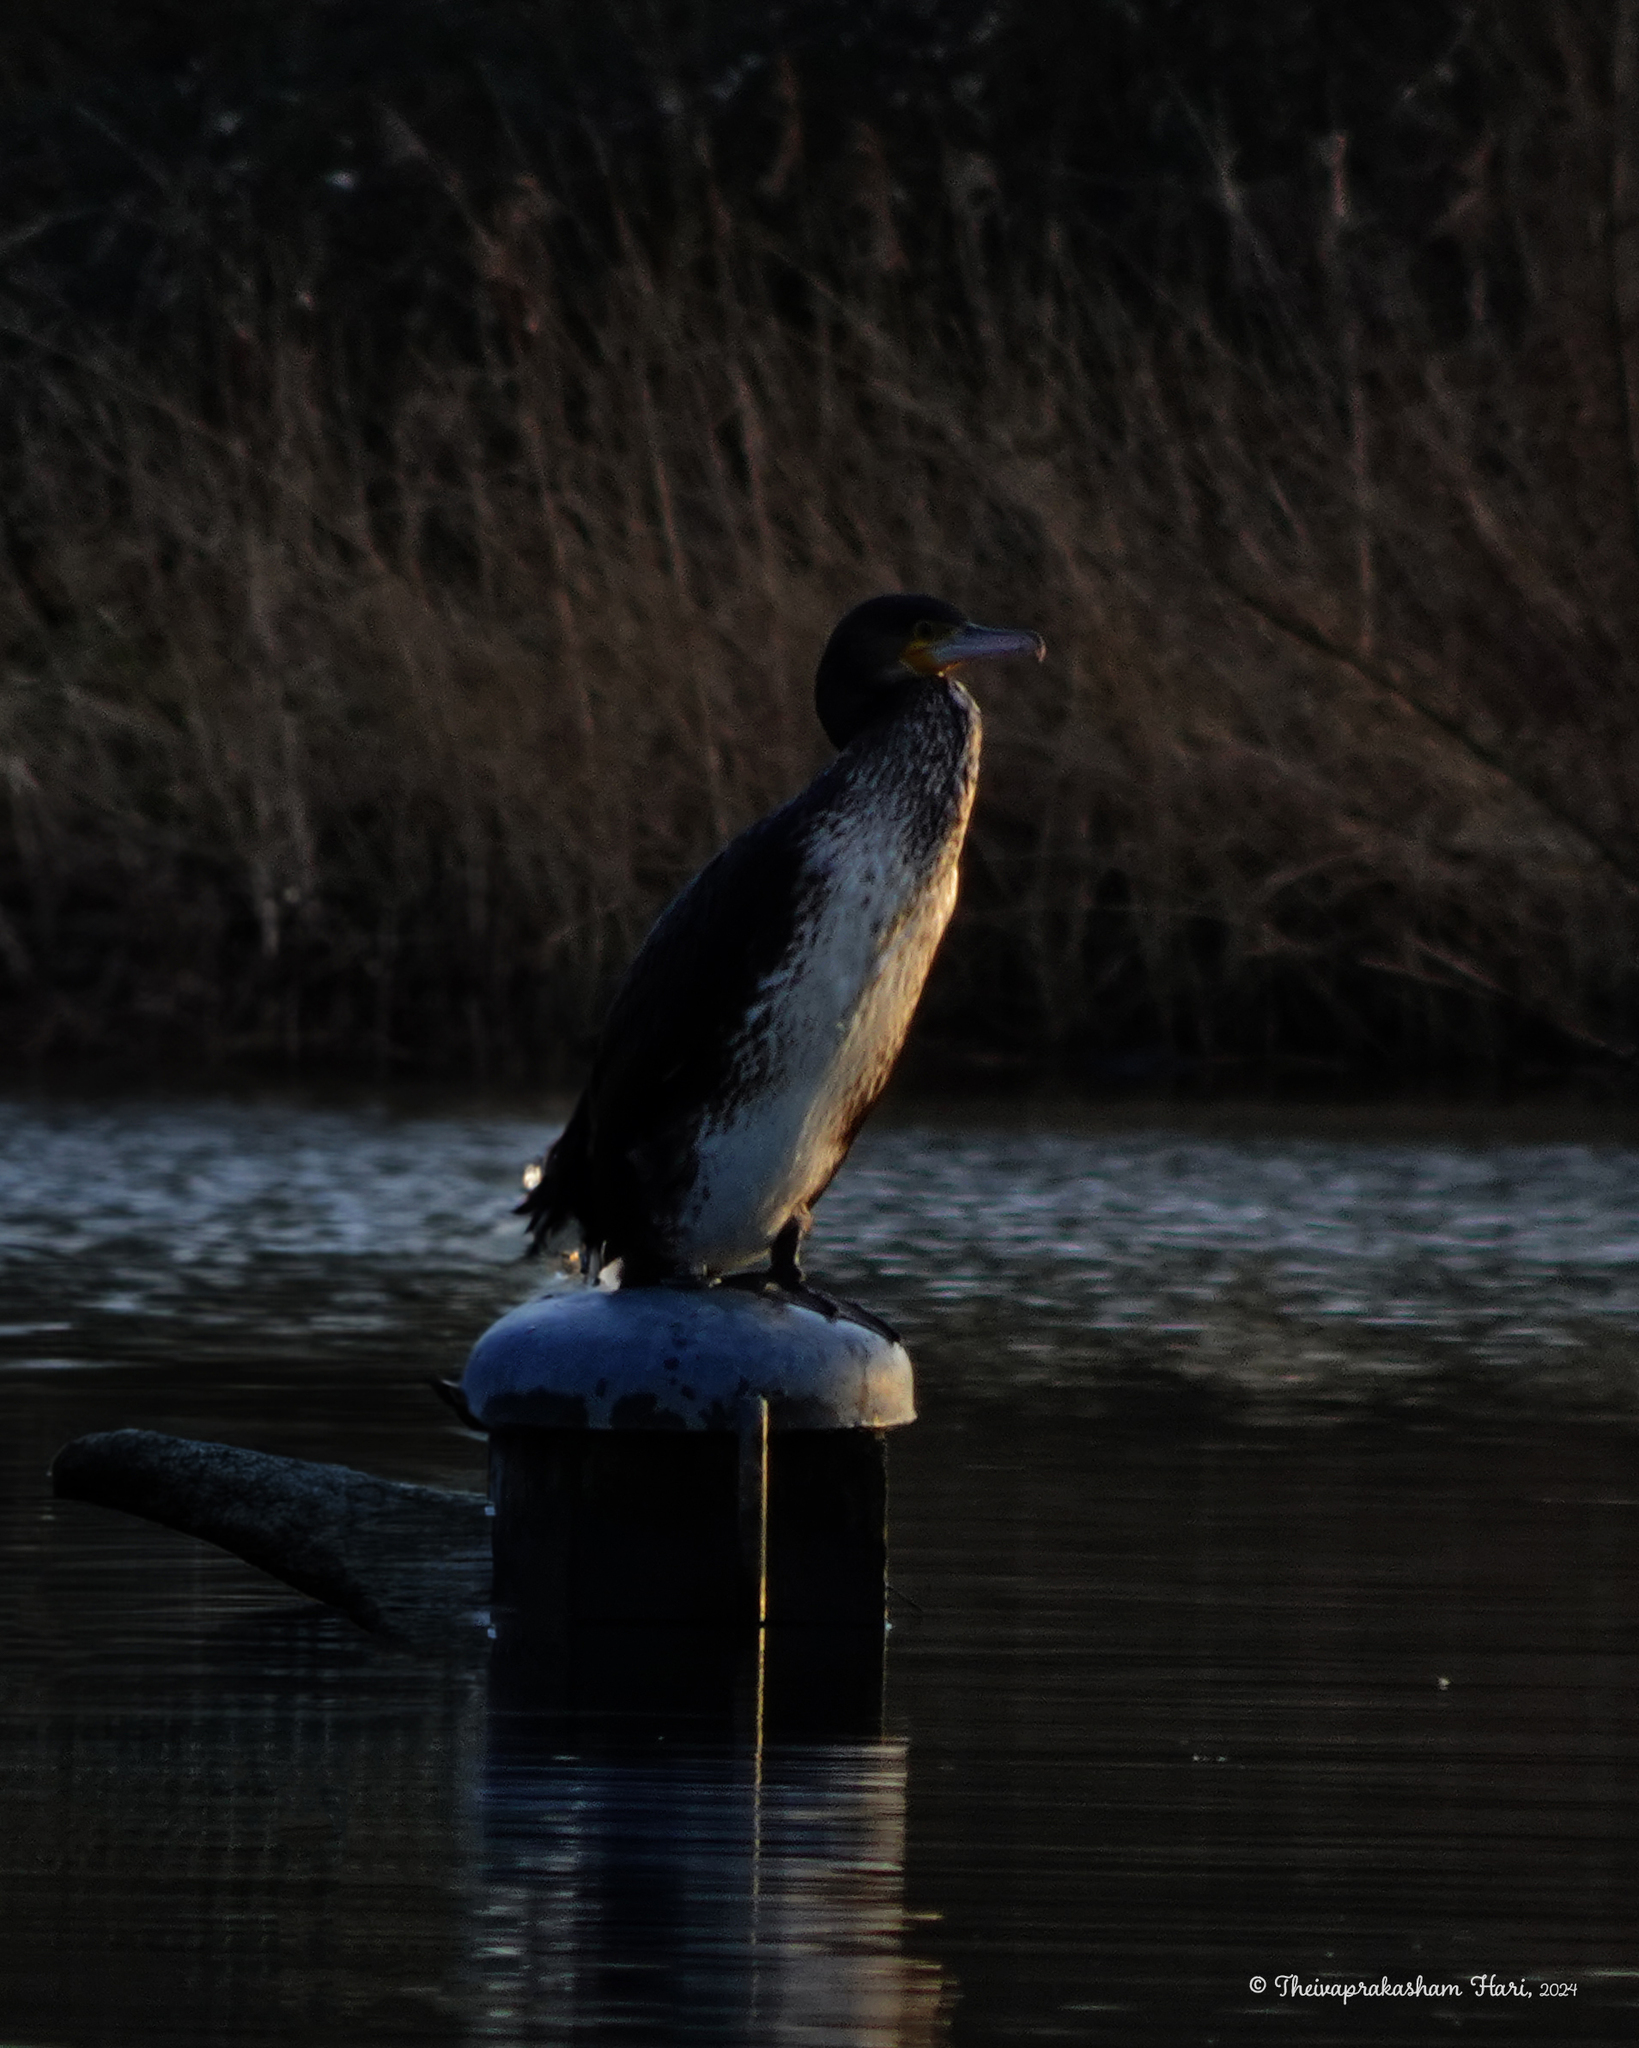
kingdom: Animalia
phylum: Chordata
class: Aves
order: Suliformes
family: Phalacrocoracidae
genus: Phalacrocorax
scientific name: Phalacrocorax carbo
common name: Great cormorant
